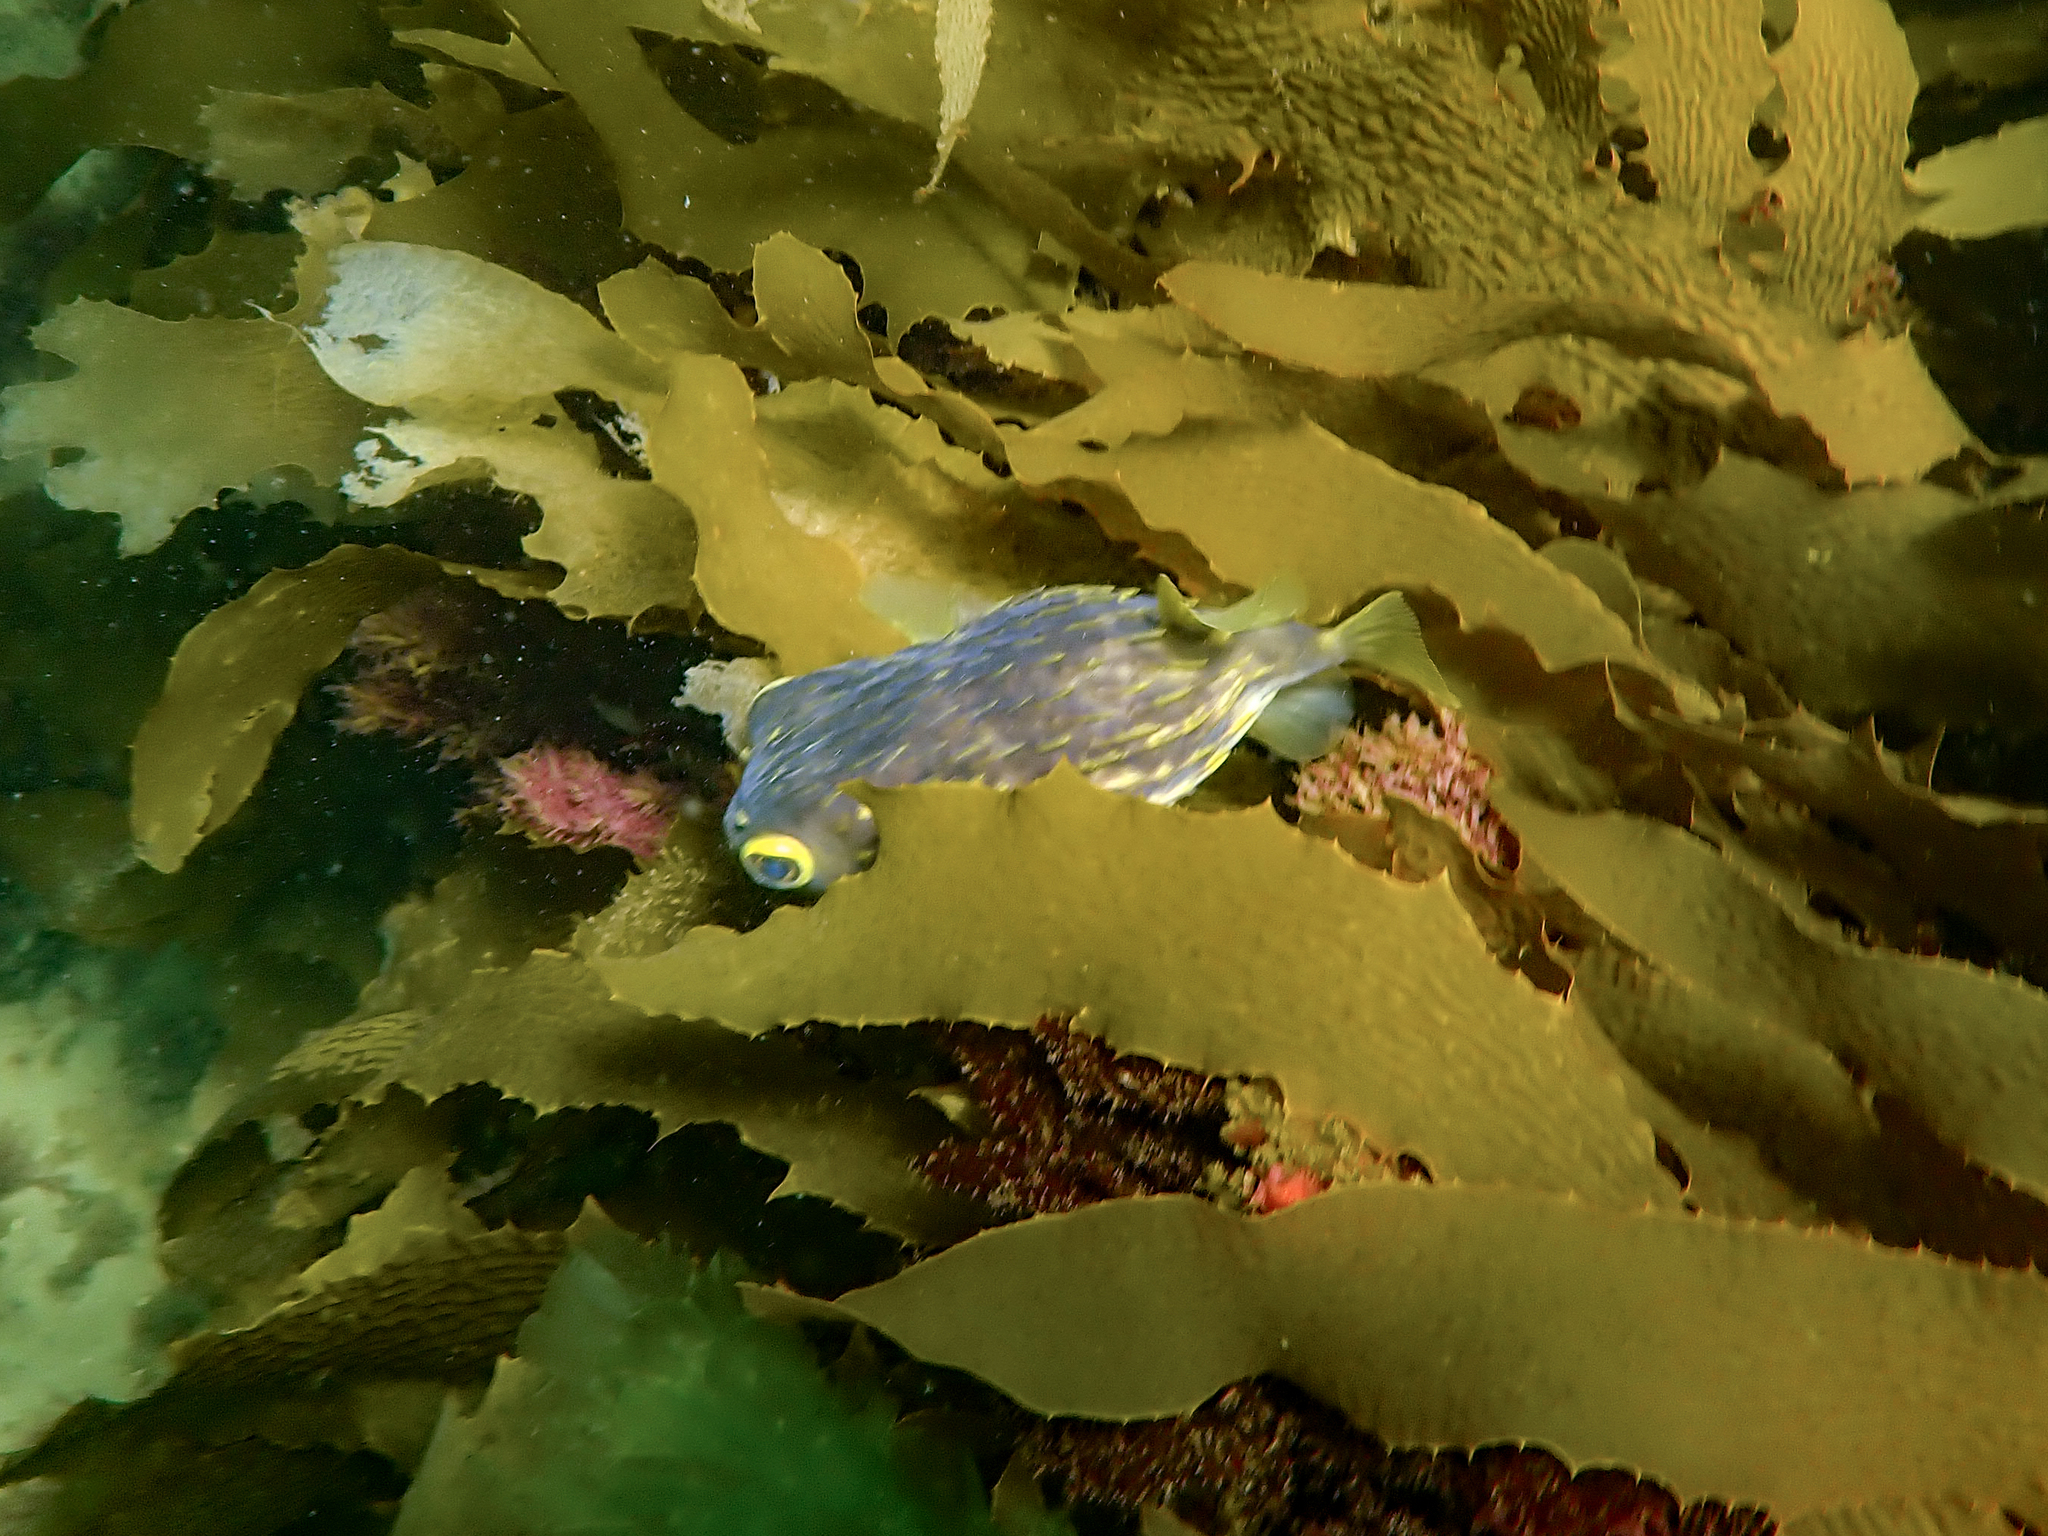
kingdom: Animalia
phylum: Chordata
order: Tetraodontiformes
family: Diodontidae
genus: Diodon
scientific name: Diodon nicthemerus
